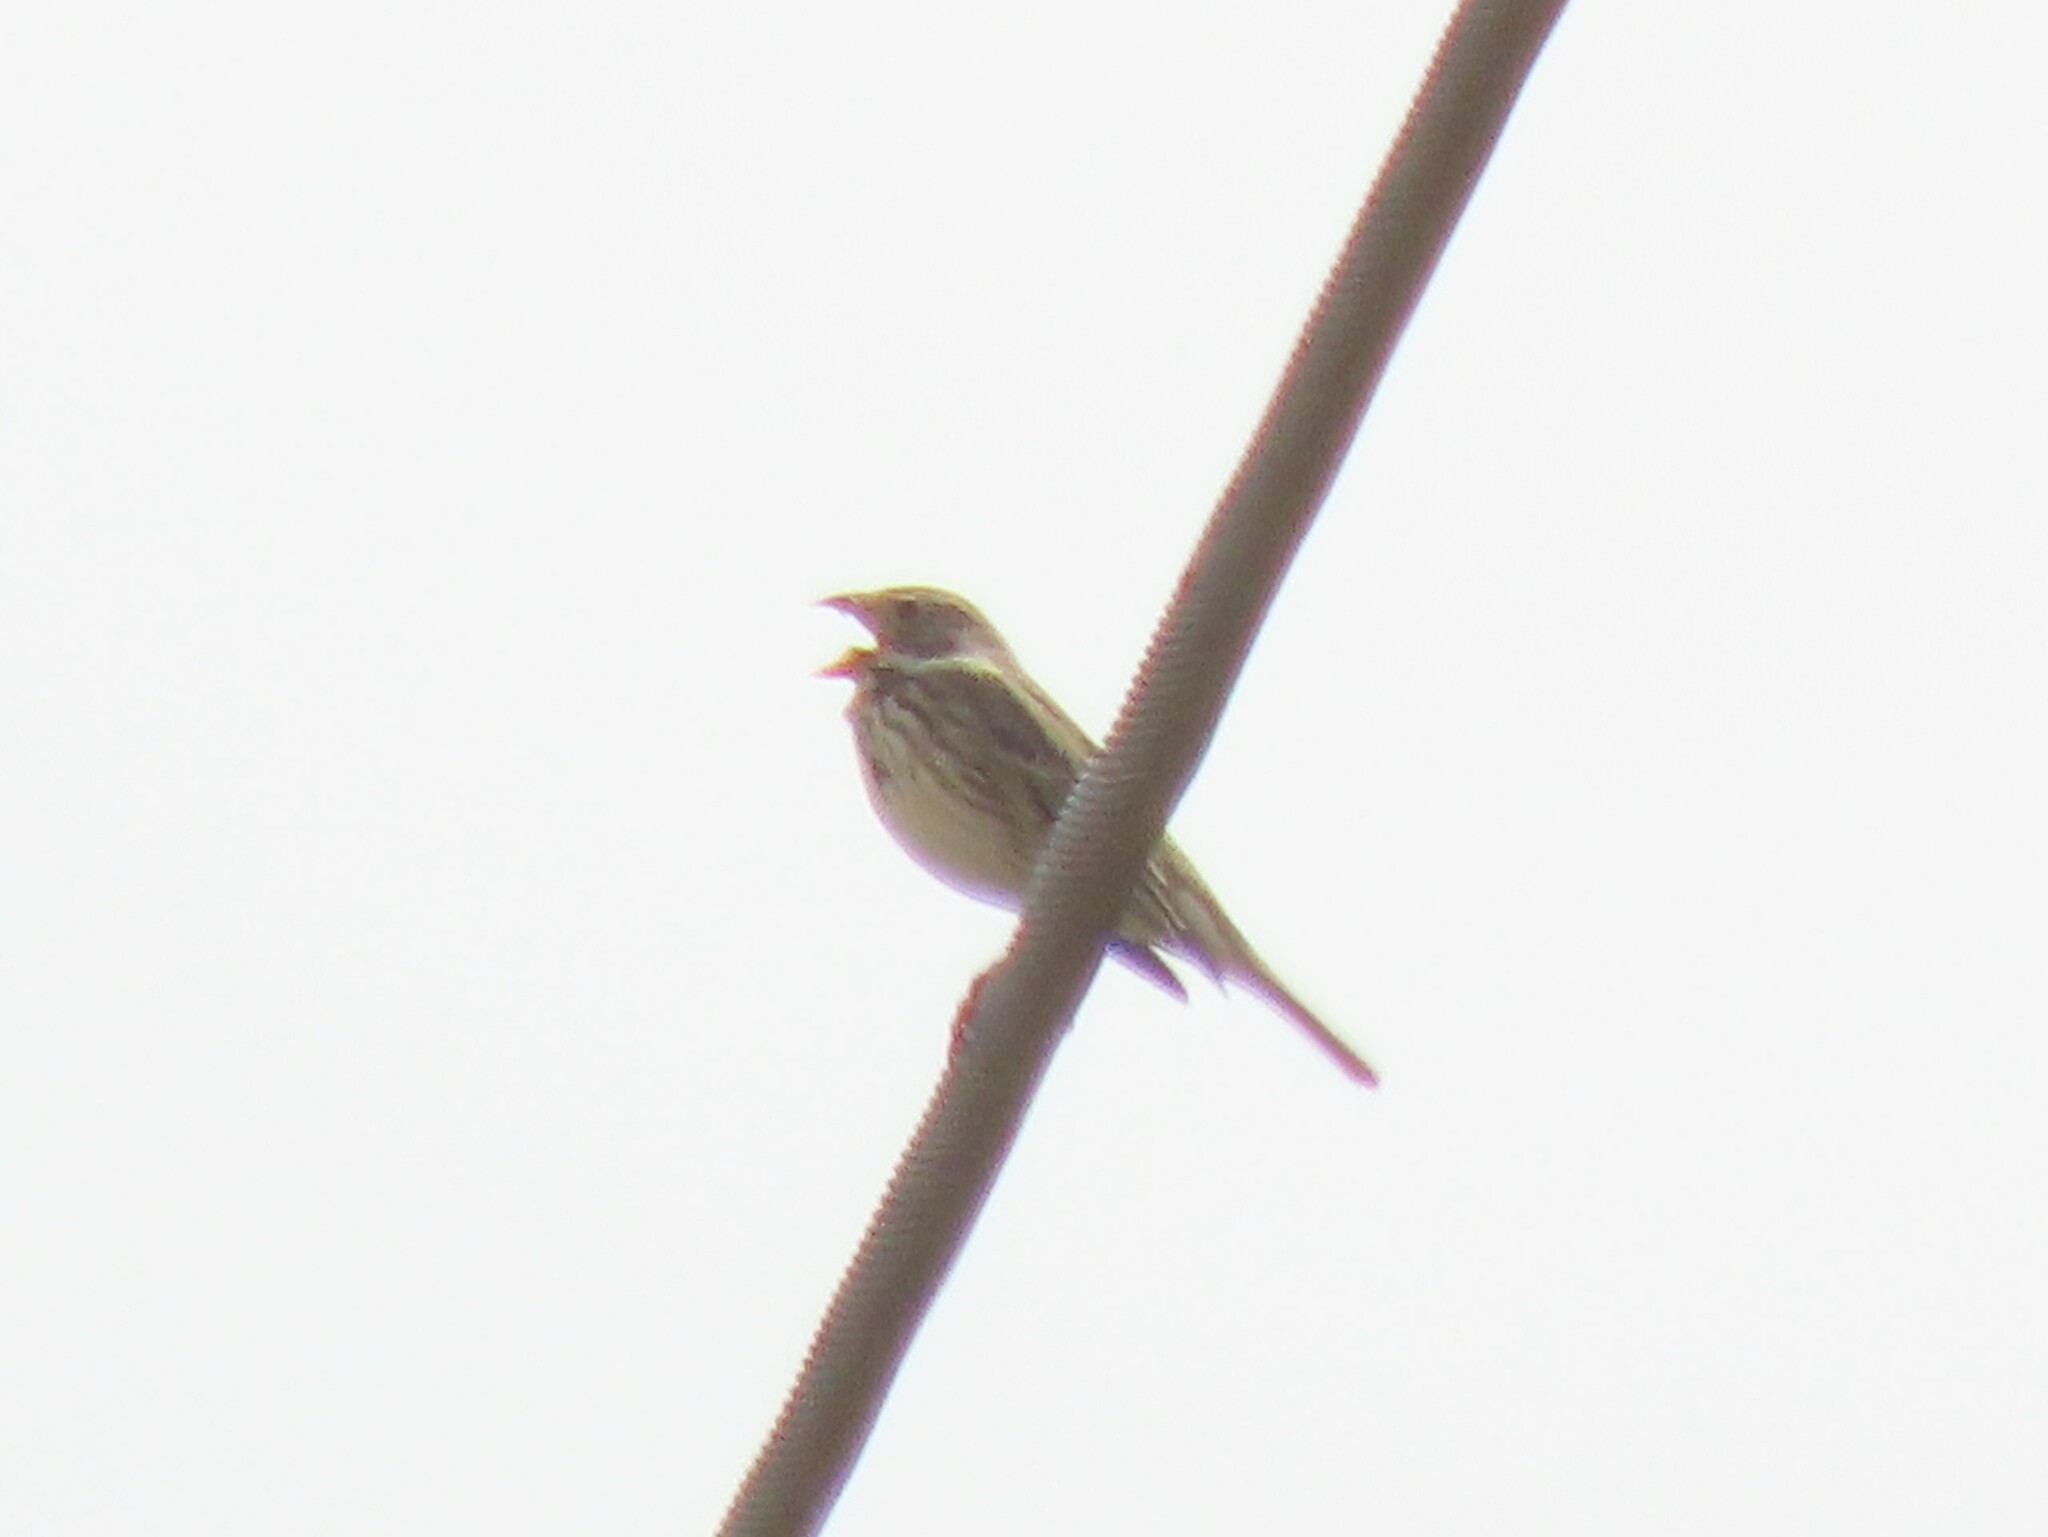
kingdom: Animalia
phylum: Chordata
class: Aves
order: Passeriformes
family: Emberizidae
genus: Emberiza
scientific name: Emberiza calandra
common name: Corn bunting
